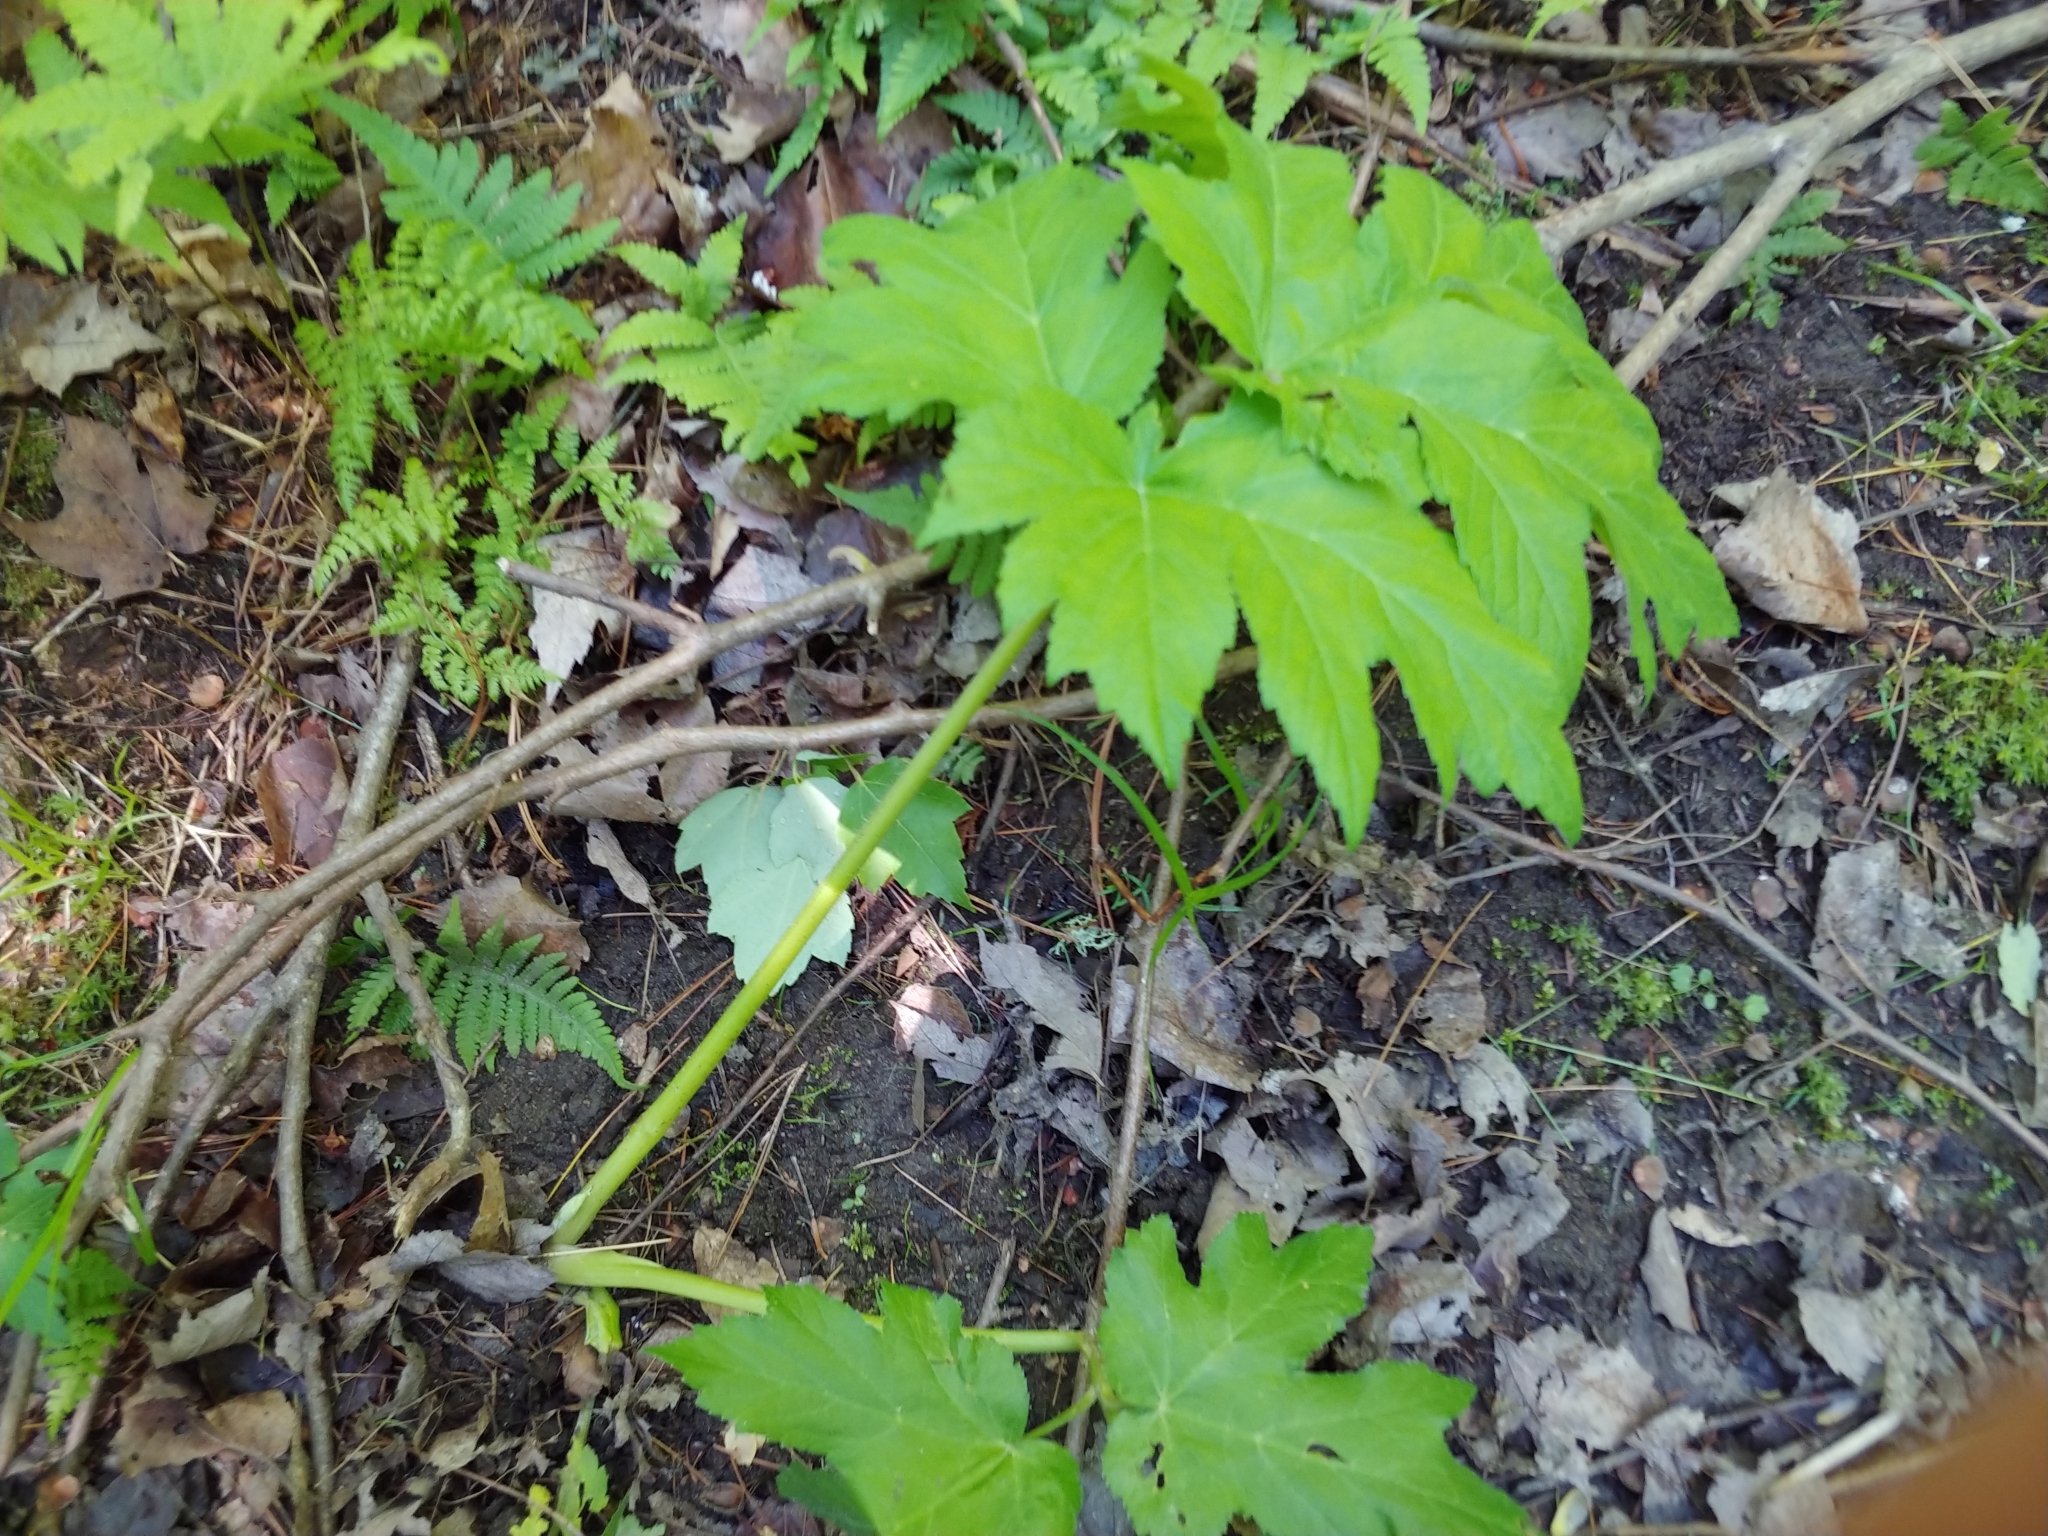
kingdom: Plantae
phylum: Tracheophyta
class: Magnoliopsida
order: Apiales
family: Apiaceae
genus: Heracleum
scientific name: Heracleum maximum
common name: American cow parsnip
